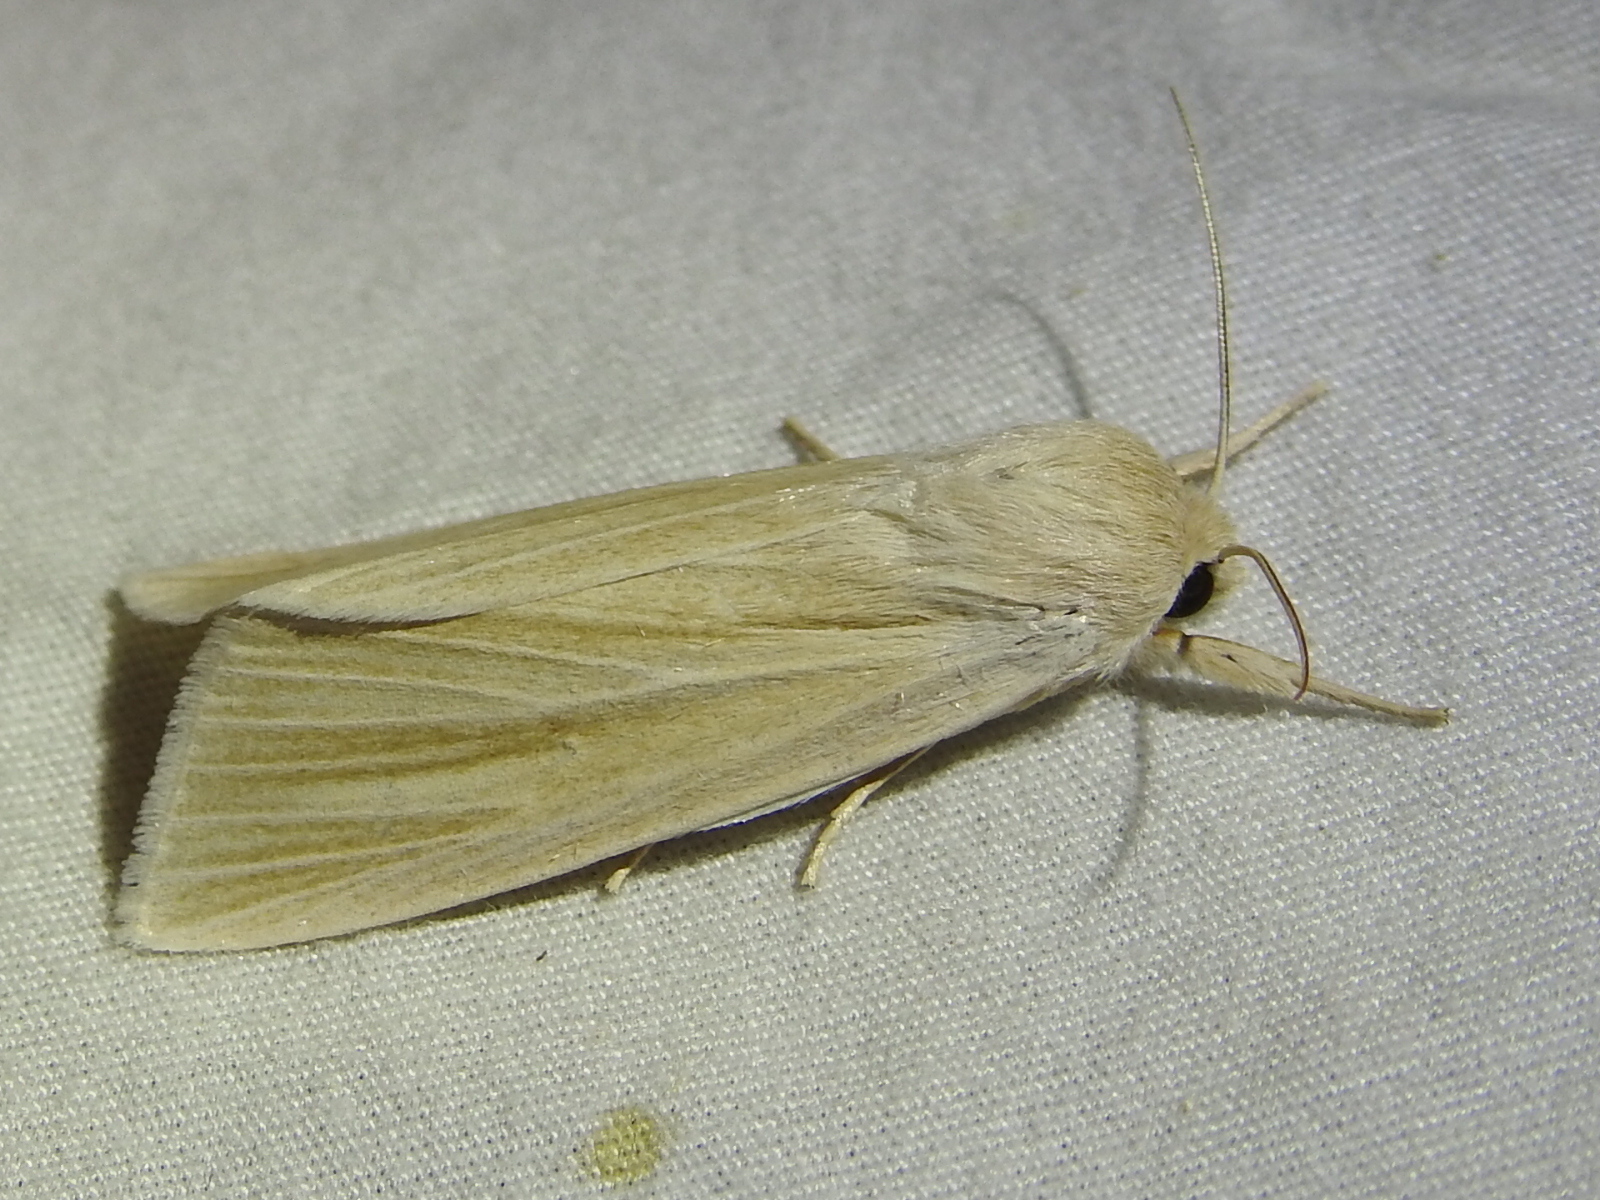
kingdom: Animalia
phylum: Arthropoda
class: Insecta
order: Lepidoptera
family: Noctuidae
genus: Acronicta
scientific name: Acronicta insularis
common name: Henry's marsh moth
